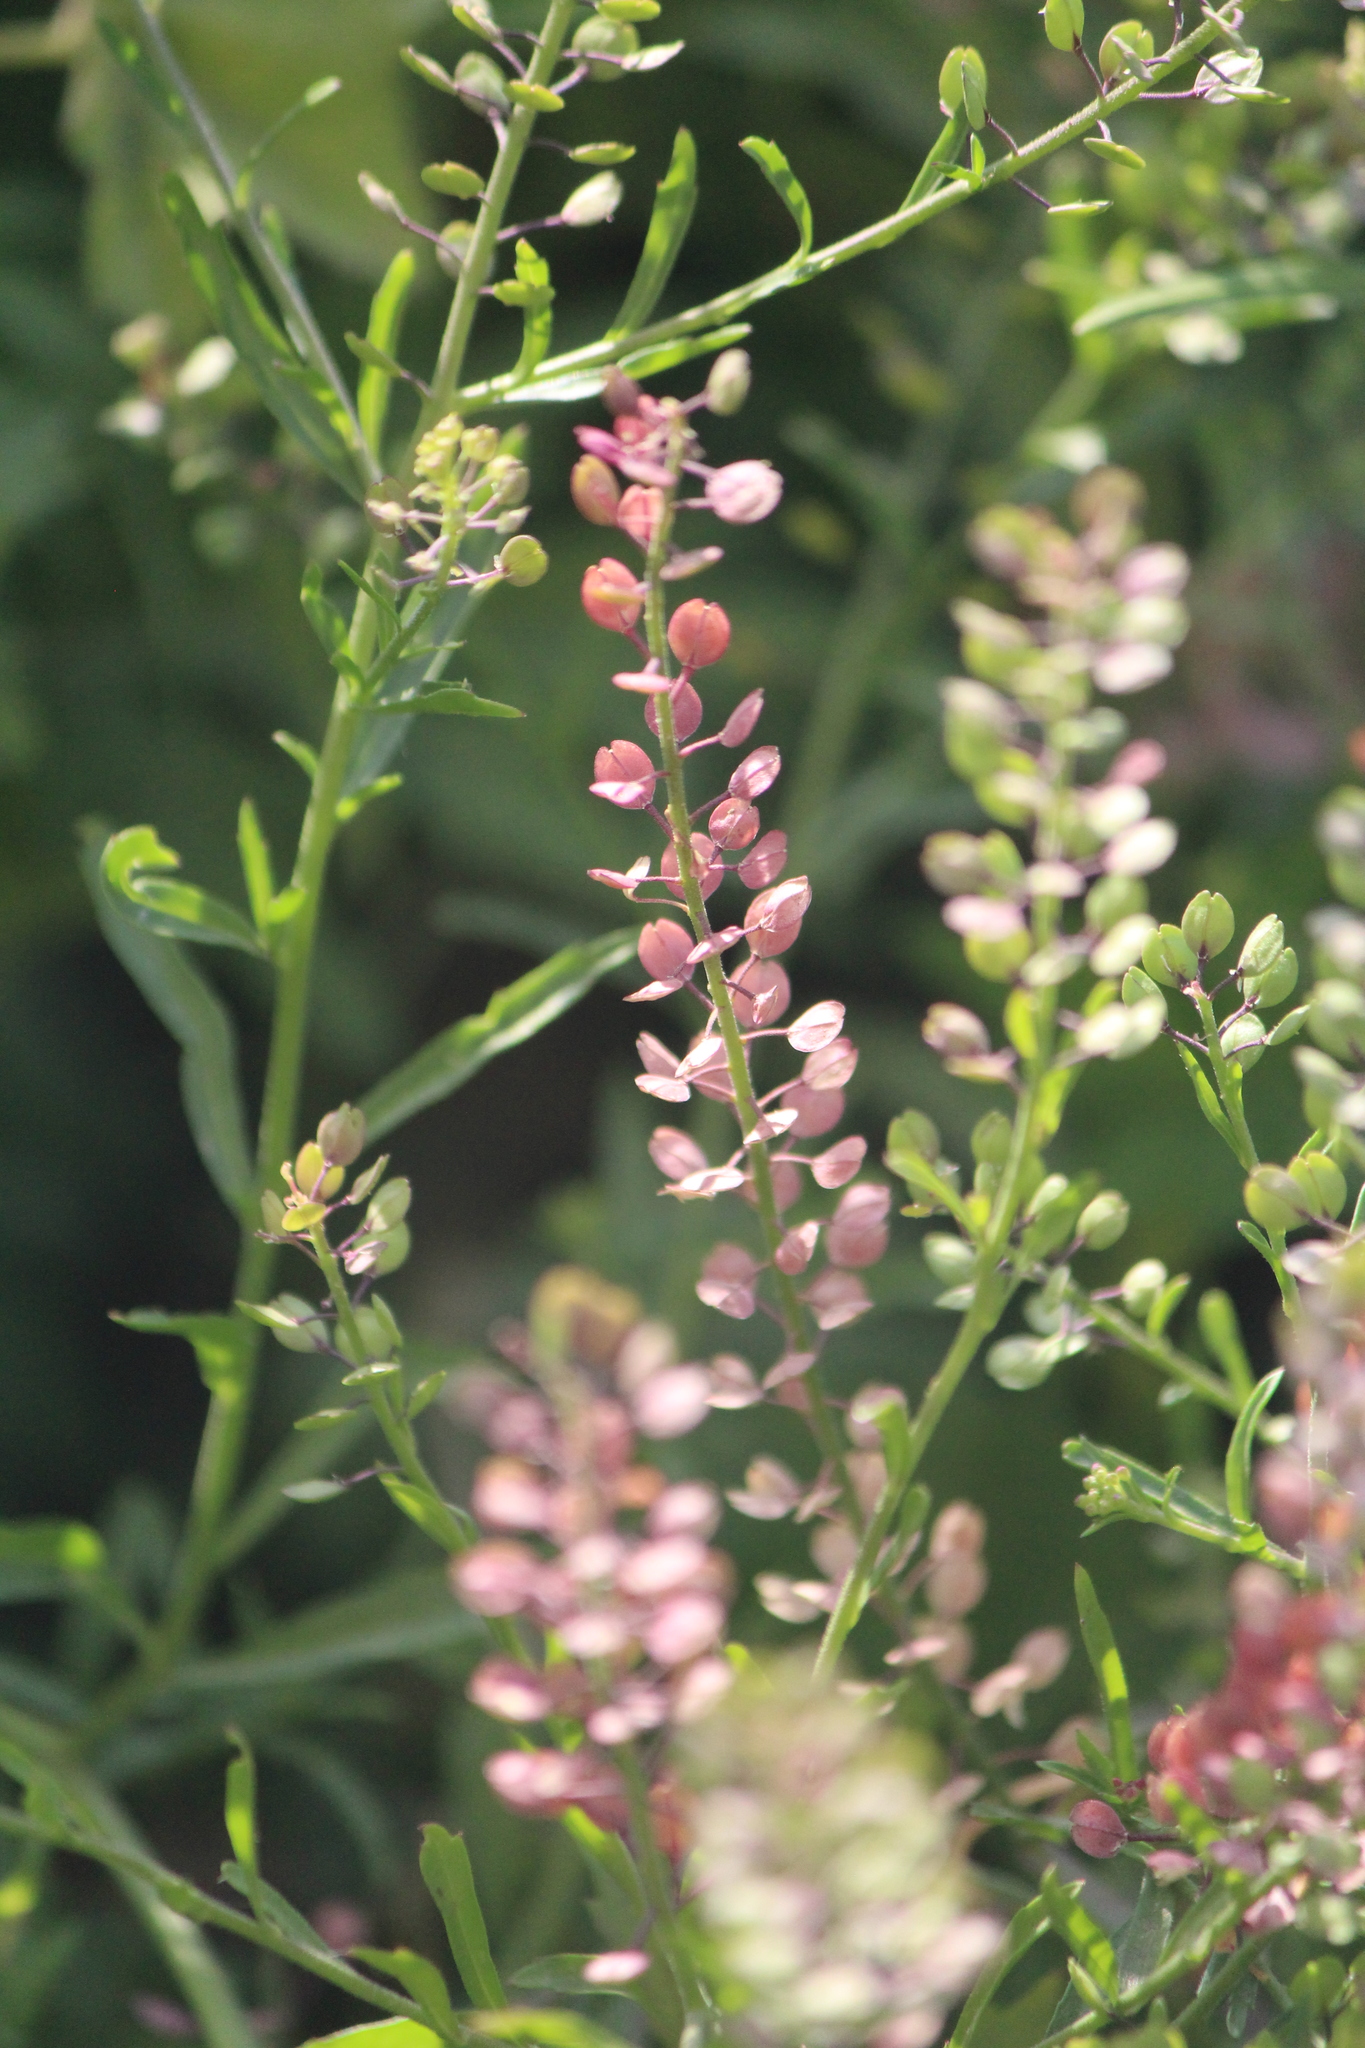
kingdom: Plantae
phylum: Tracheophyta
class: Magnoliopsida
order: Brassicales
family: Brassicaceae
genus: Lepidium
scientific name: Lepidium virginicum
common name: Least pepperwort
